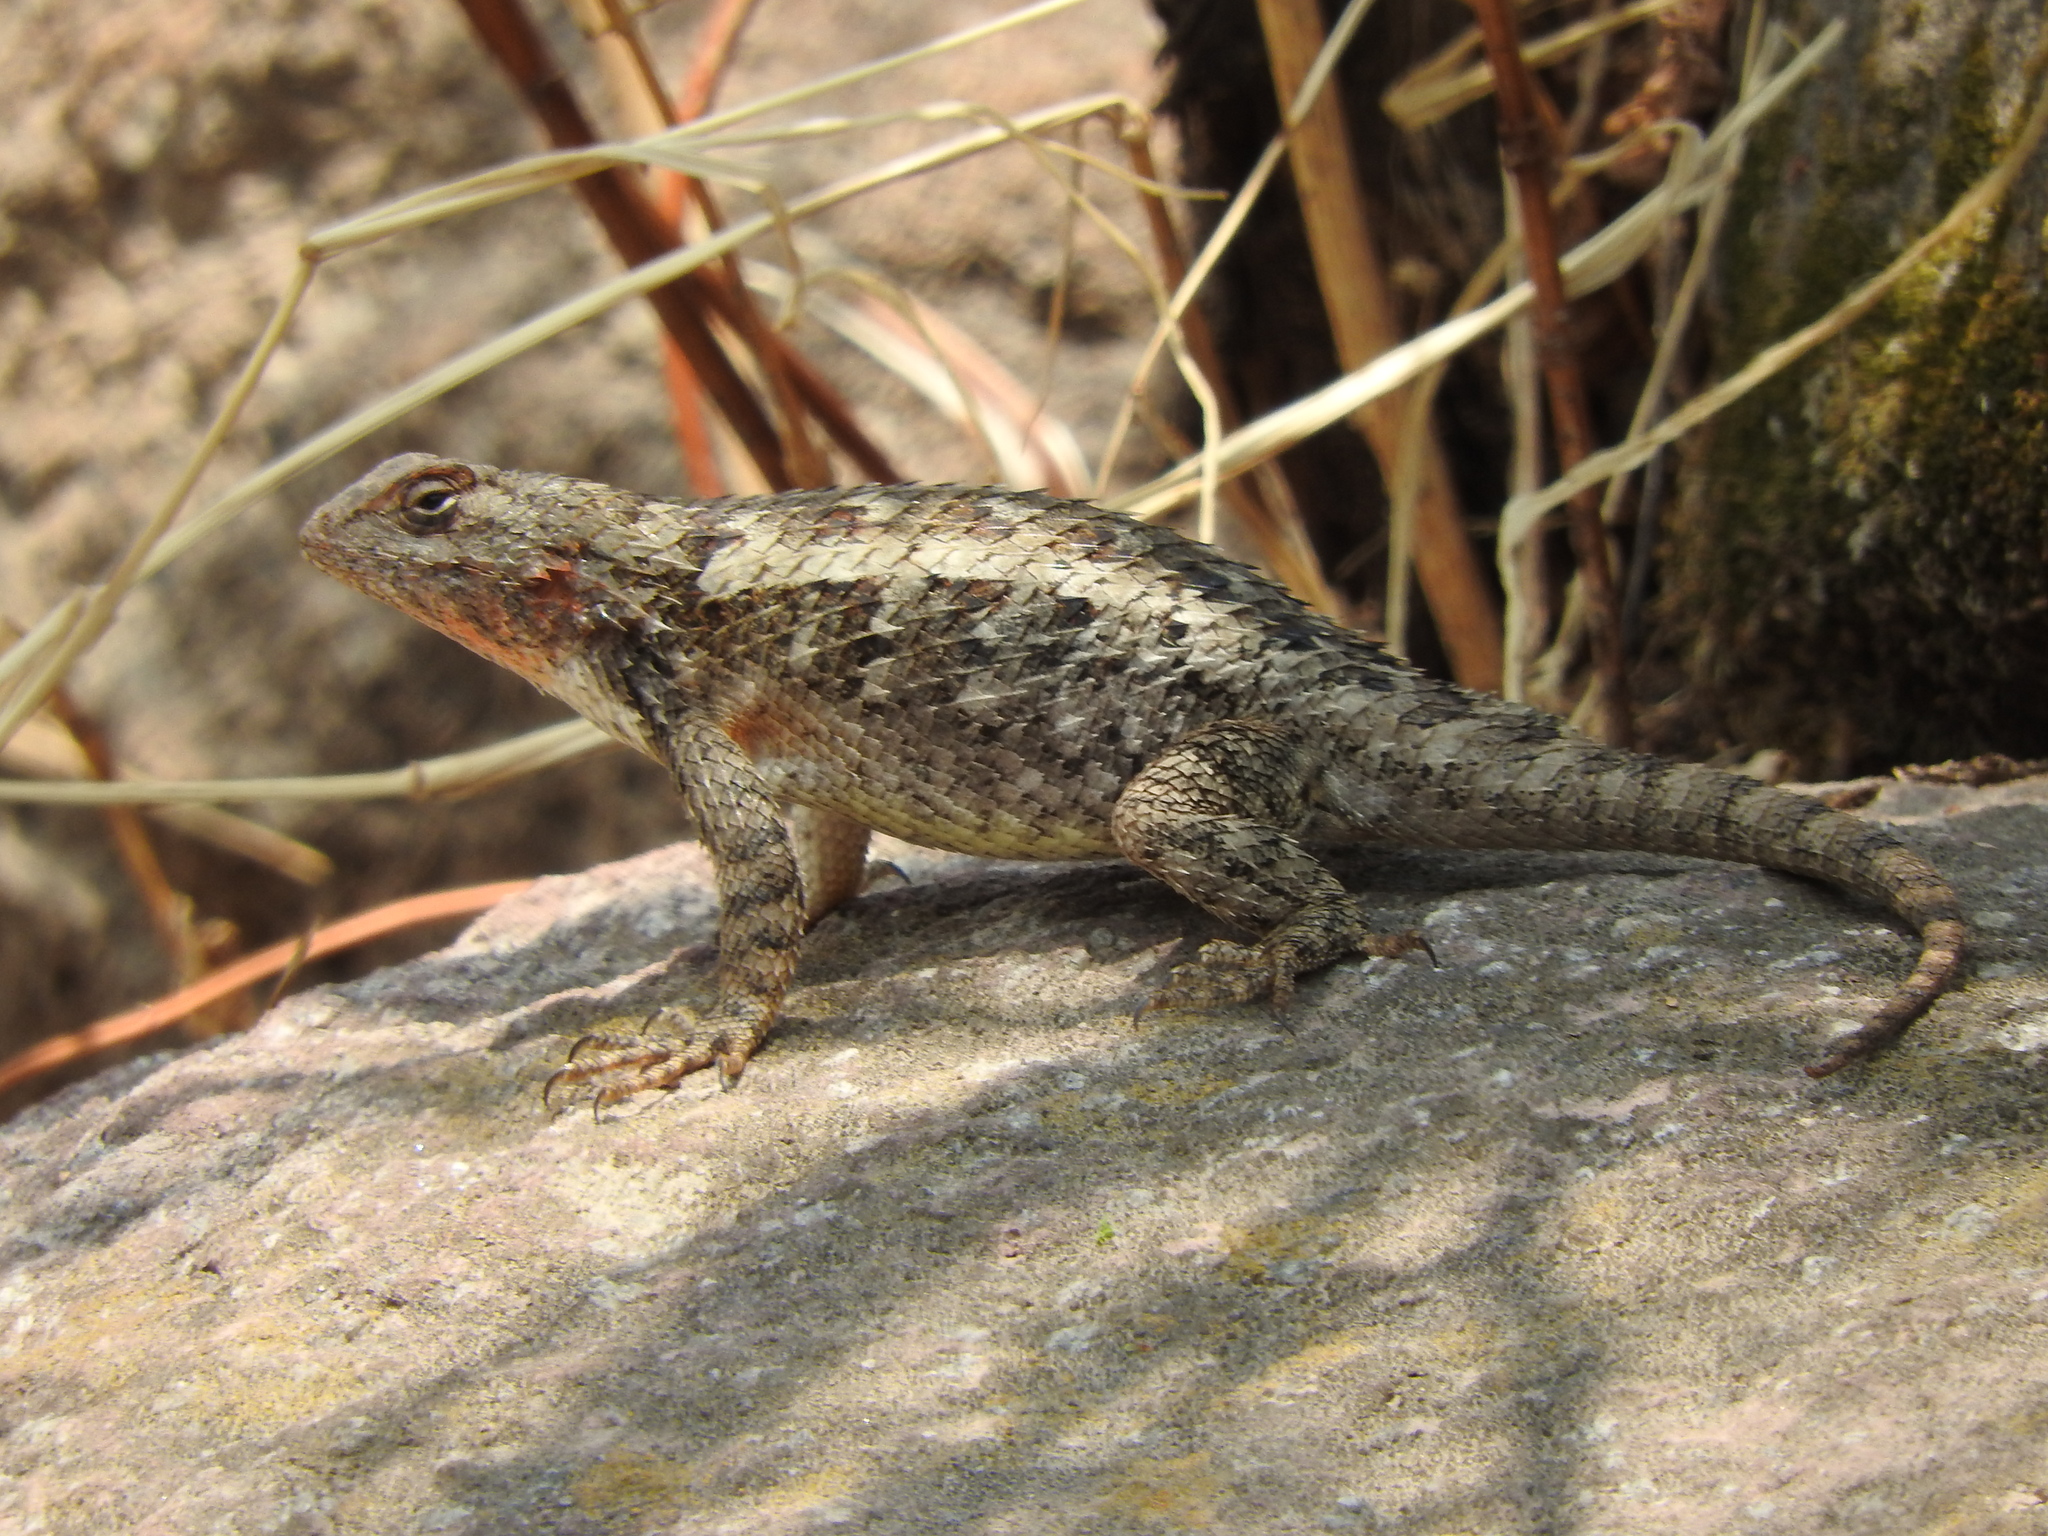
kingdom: Animalia
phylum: Chordata
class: Squamata
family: Phrynosomatidae
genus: Sceloporus
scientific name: Sceloporus spinosus
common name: Blue-spotted spiny lizard [caeruleopunctatus]
